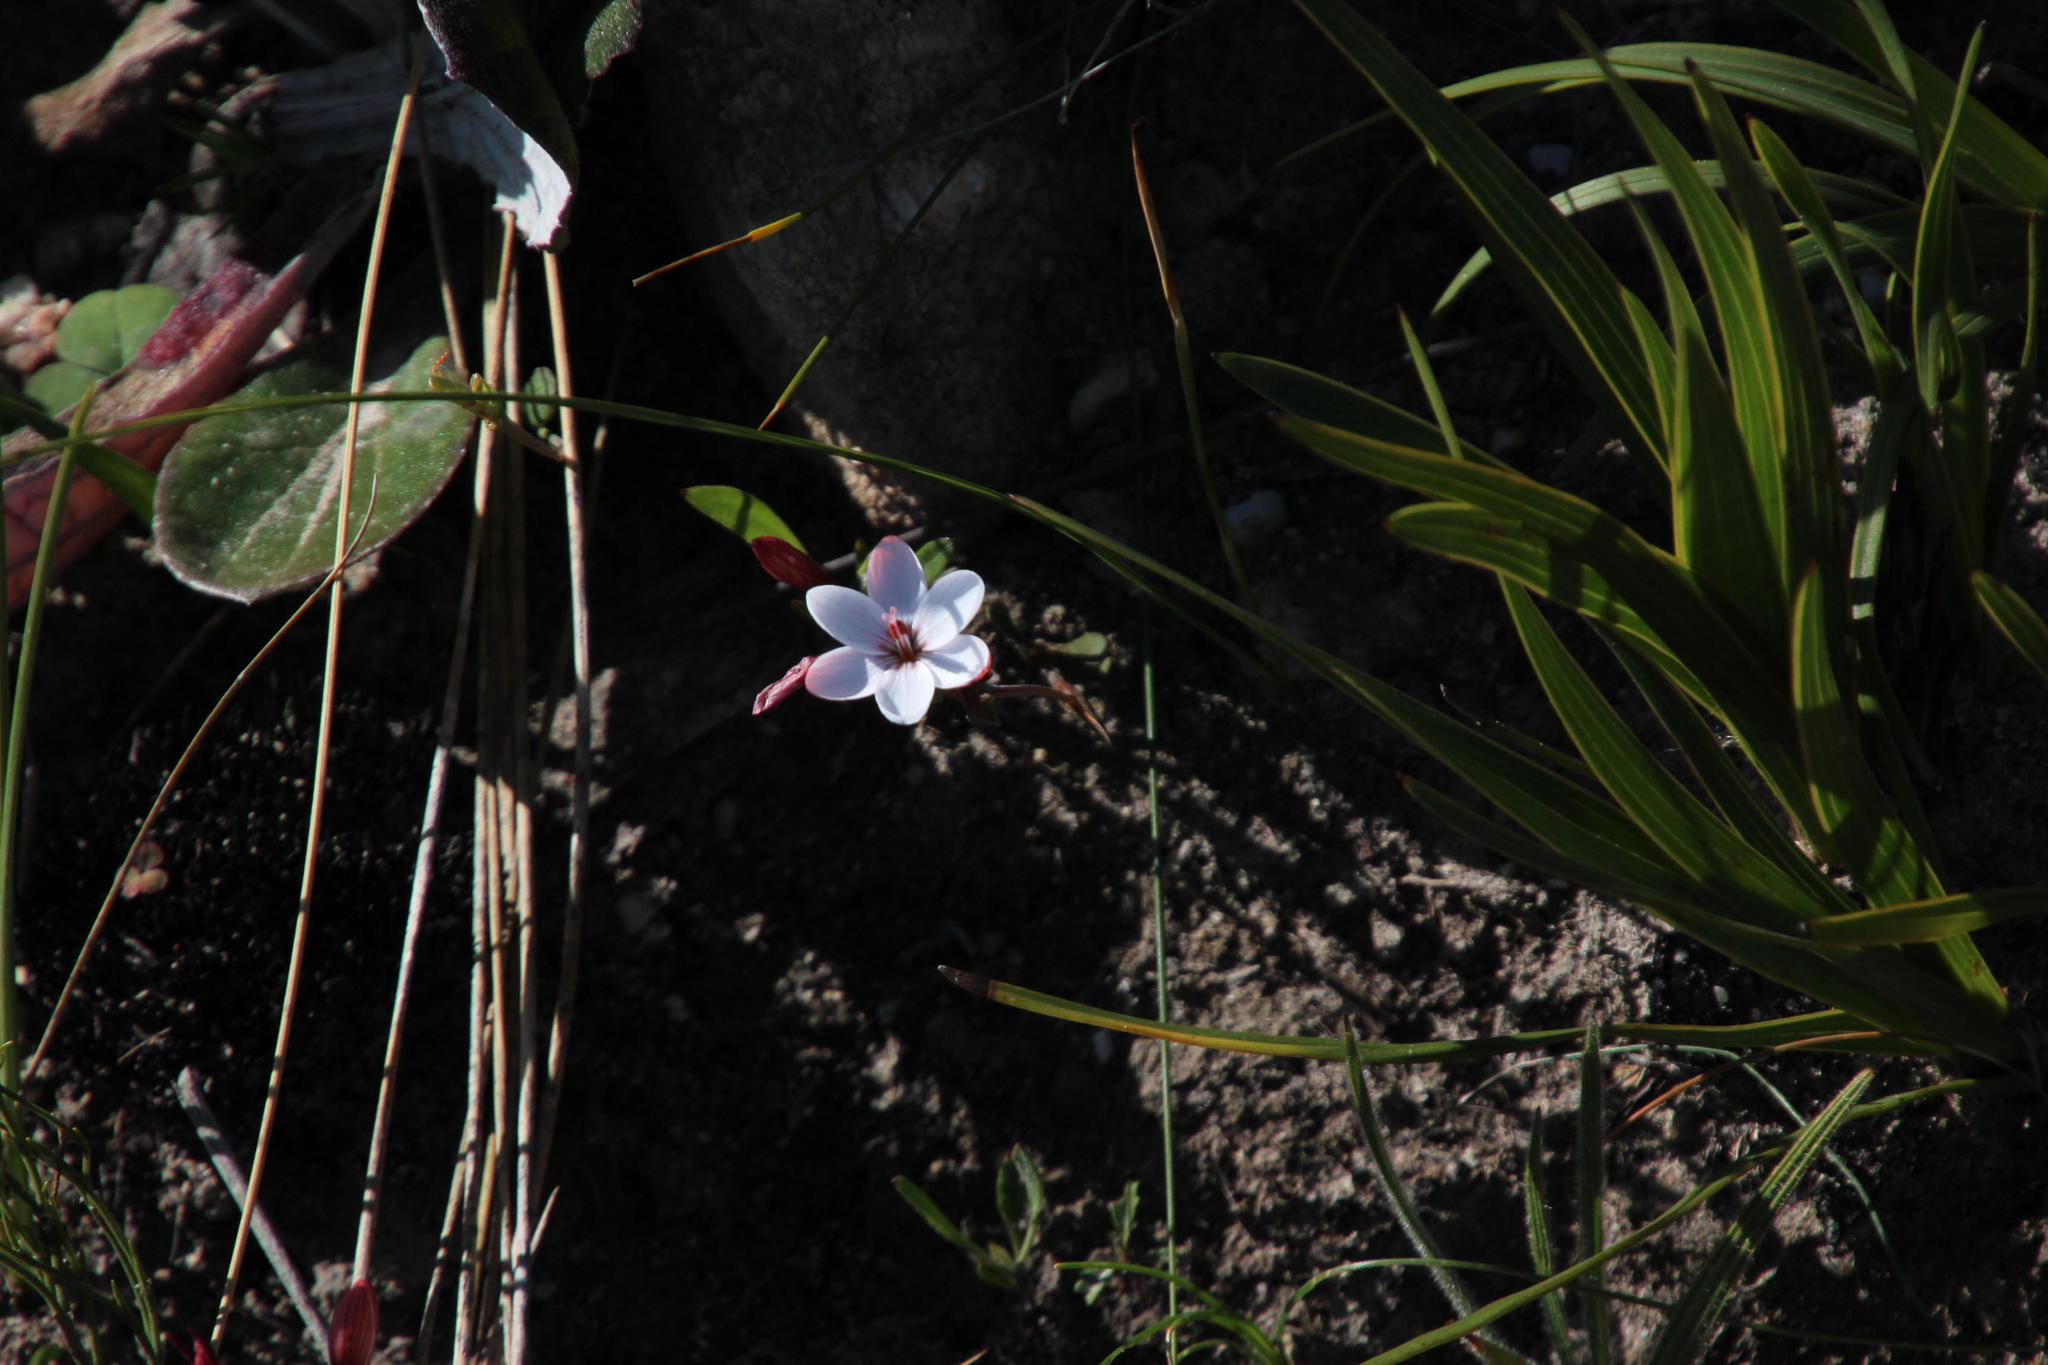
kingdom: Plantae
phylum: Tracheophyta
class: Liliopsida
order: Asparagales
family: Iridaceae
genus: Geissorhiza
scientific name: Geissorhiza ovata
